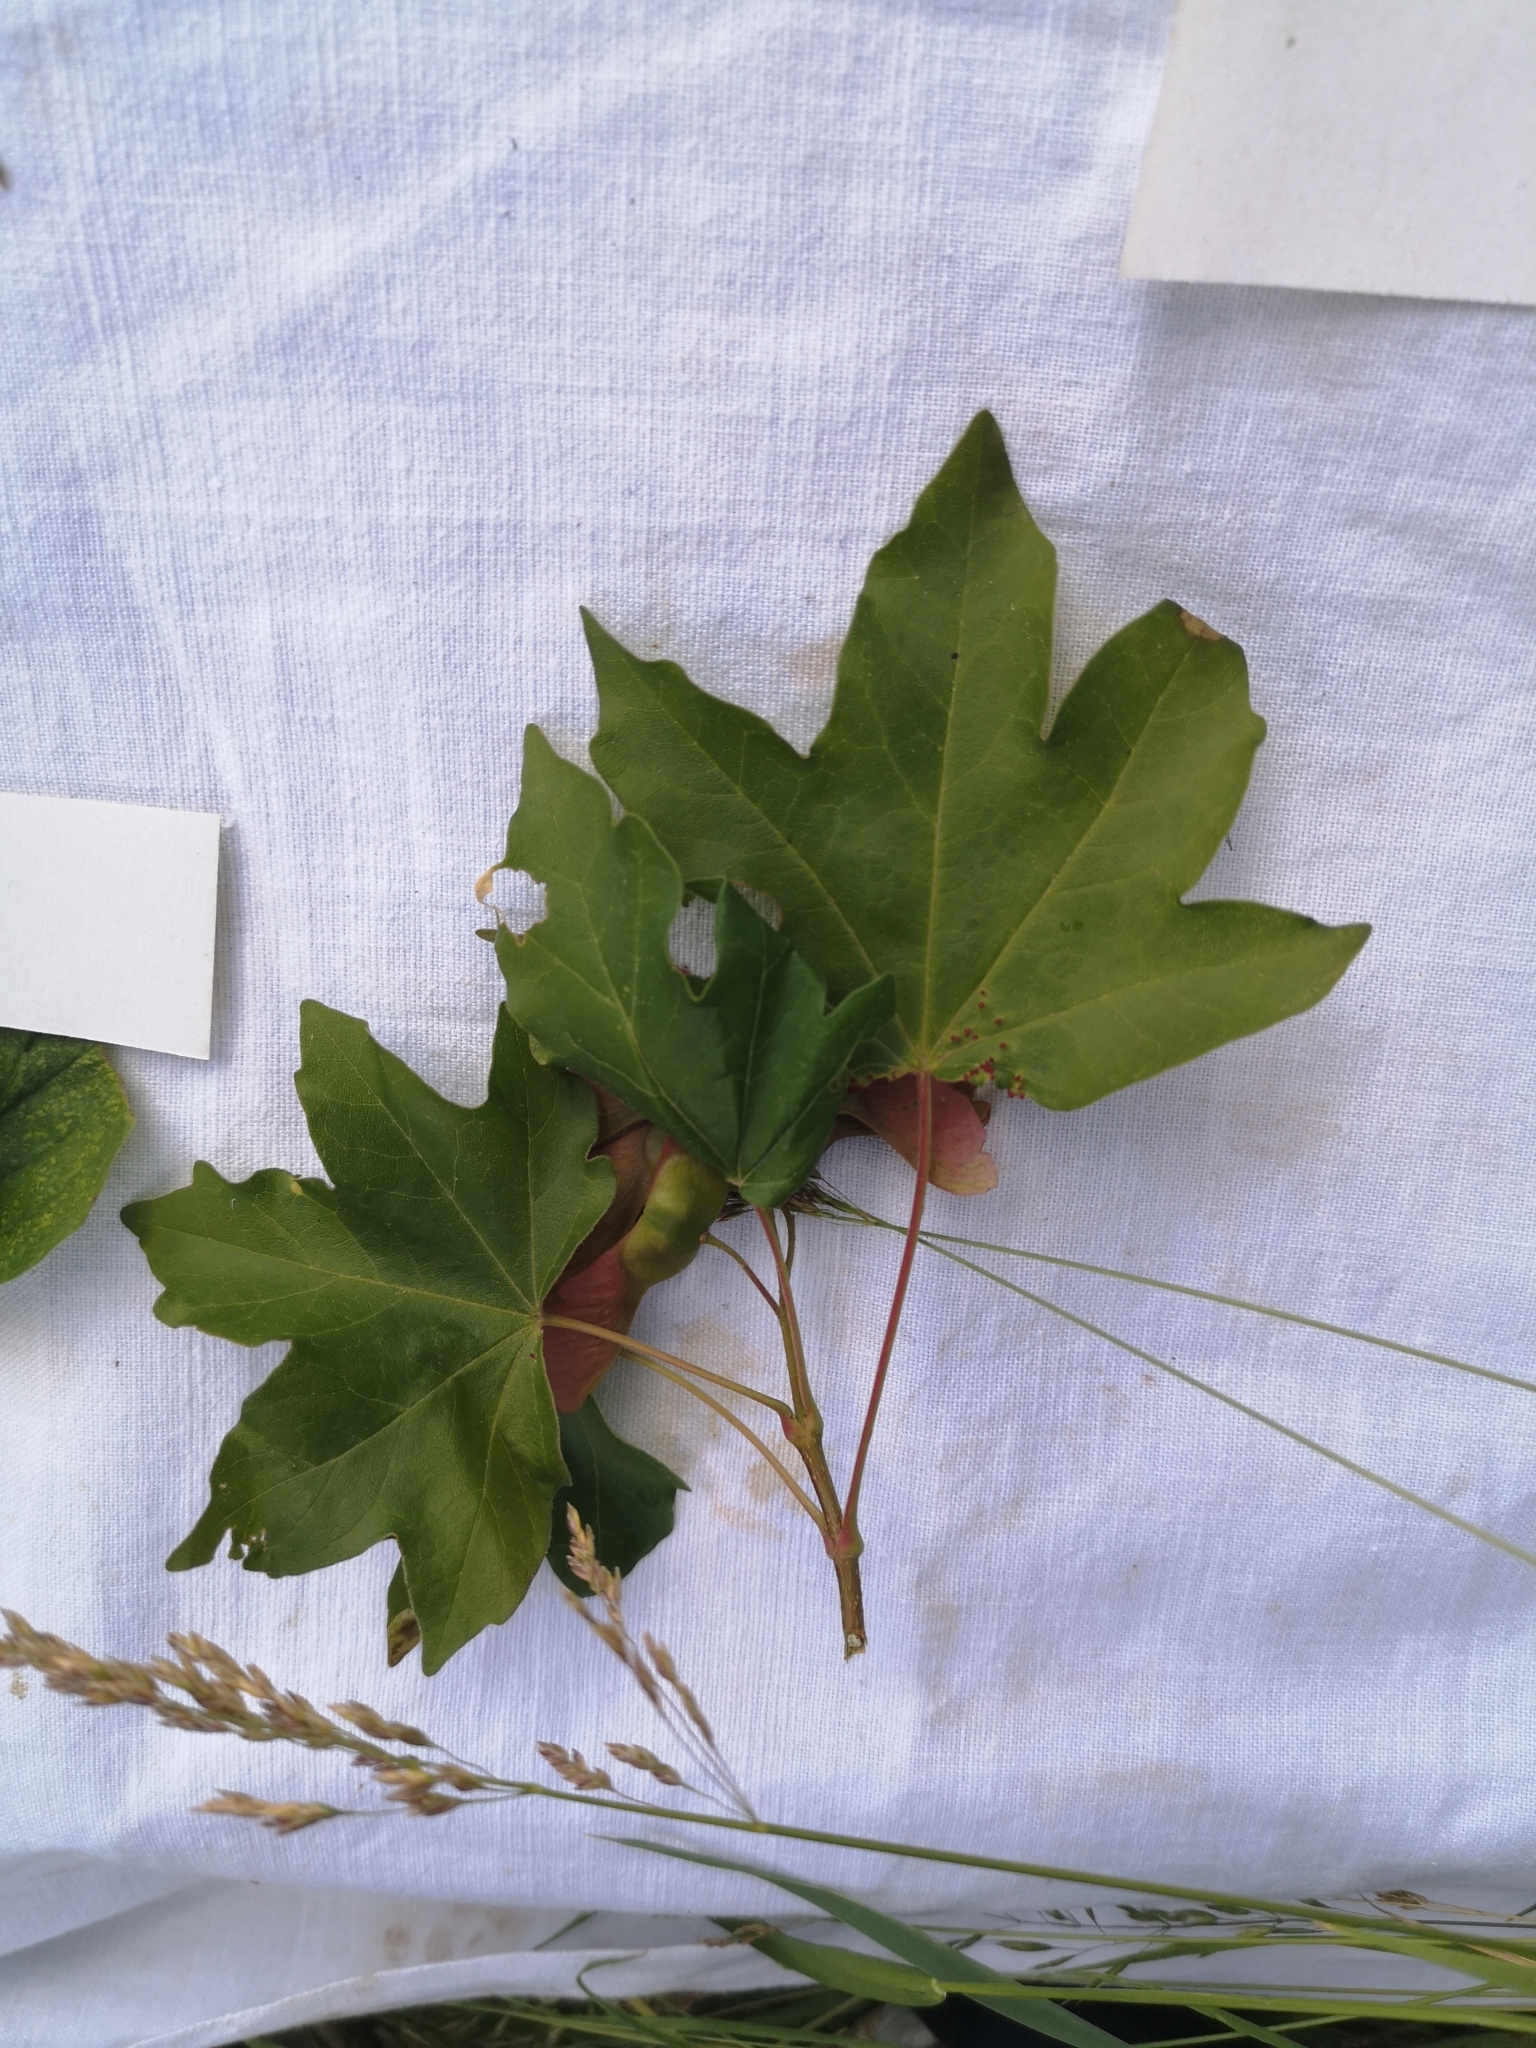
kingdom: Plantae
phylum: Tracheophyta
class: Magnoliopsida
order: Sapindales
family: Sapindaceae
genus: Acer
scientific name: Acer campestre
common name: Field maple
